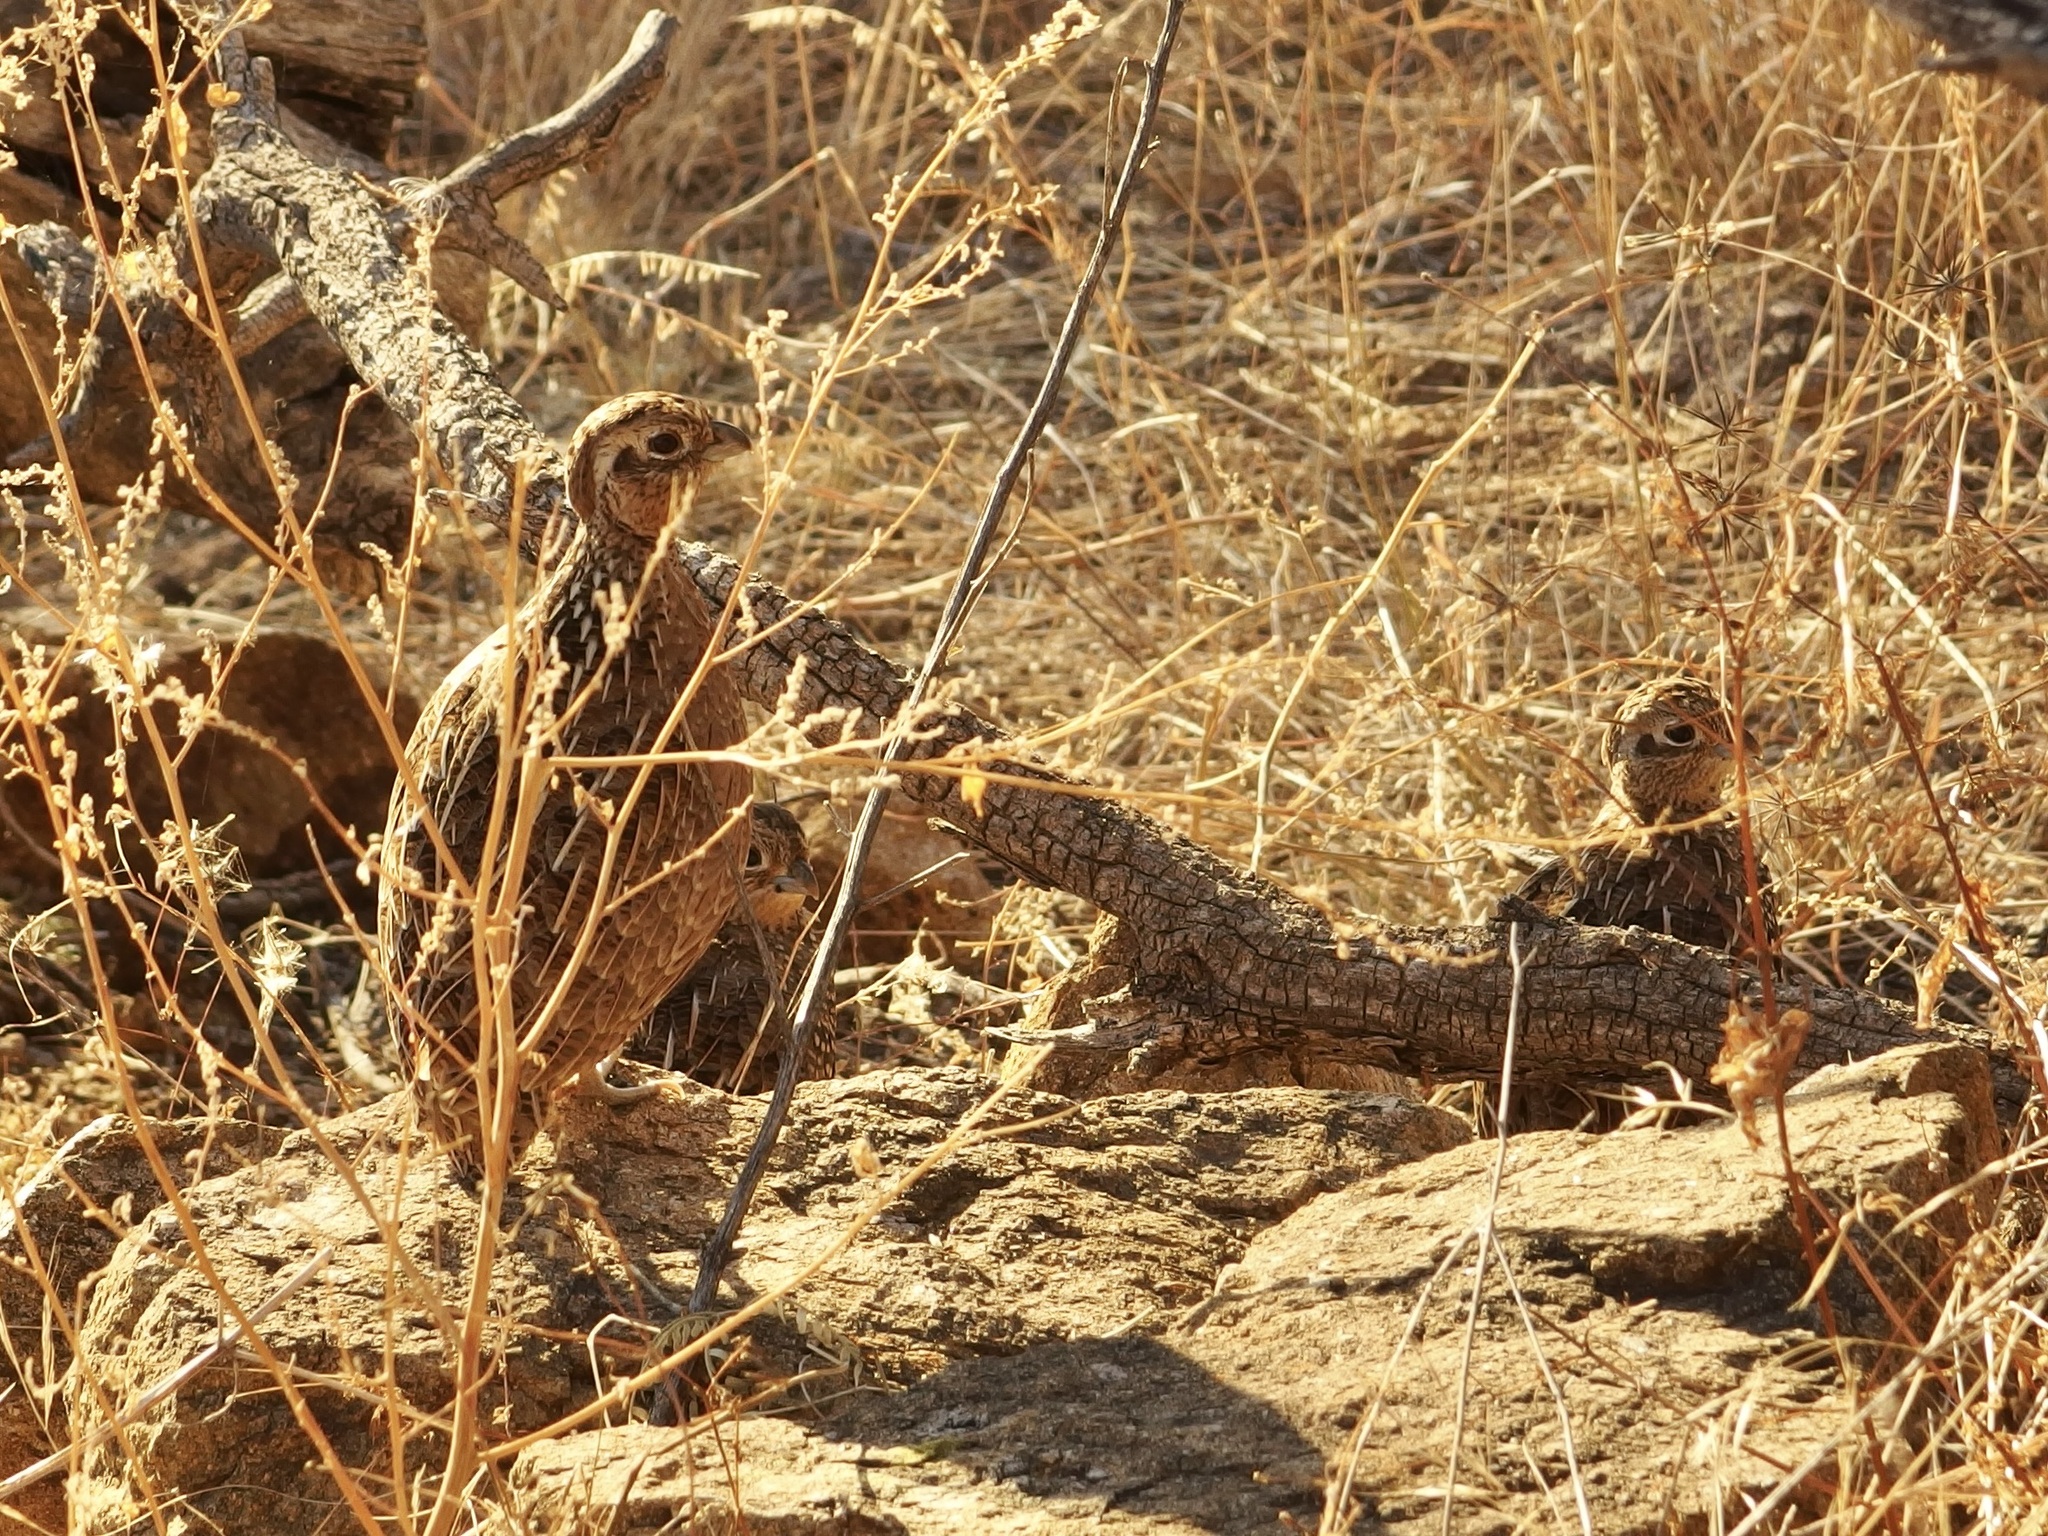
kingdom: Animalia
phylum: Chordata
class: Aves
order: Galliformes
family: Odontophoridae
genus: Cyrtonyx
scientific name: Cyrtonyx montezumae
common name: Montezuma quail
